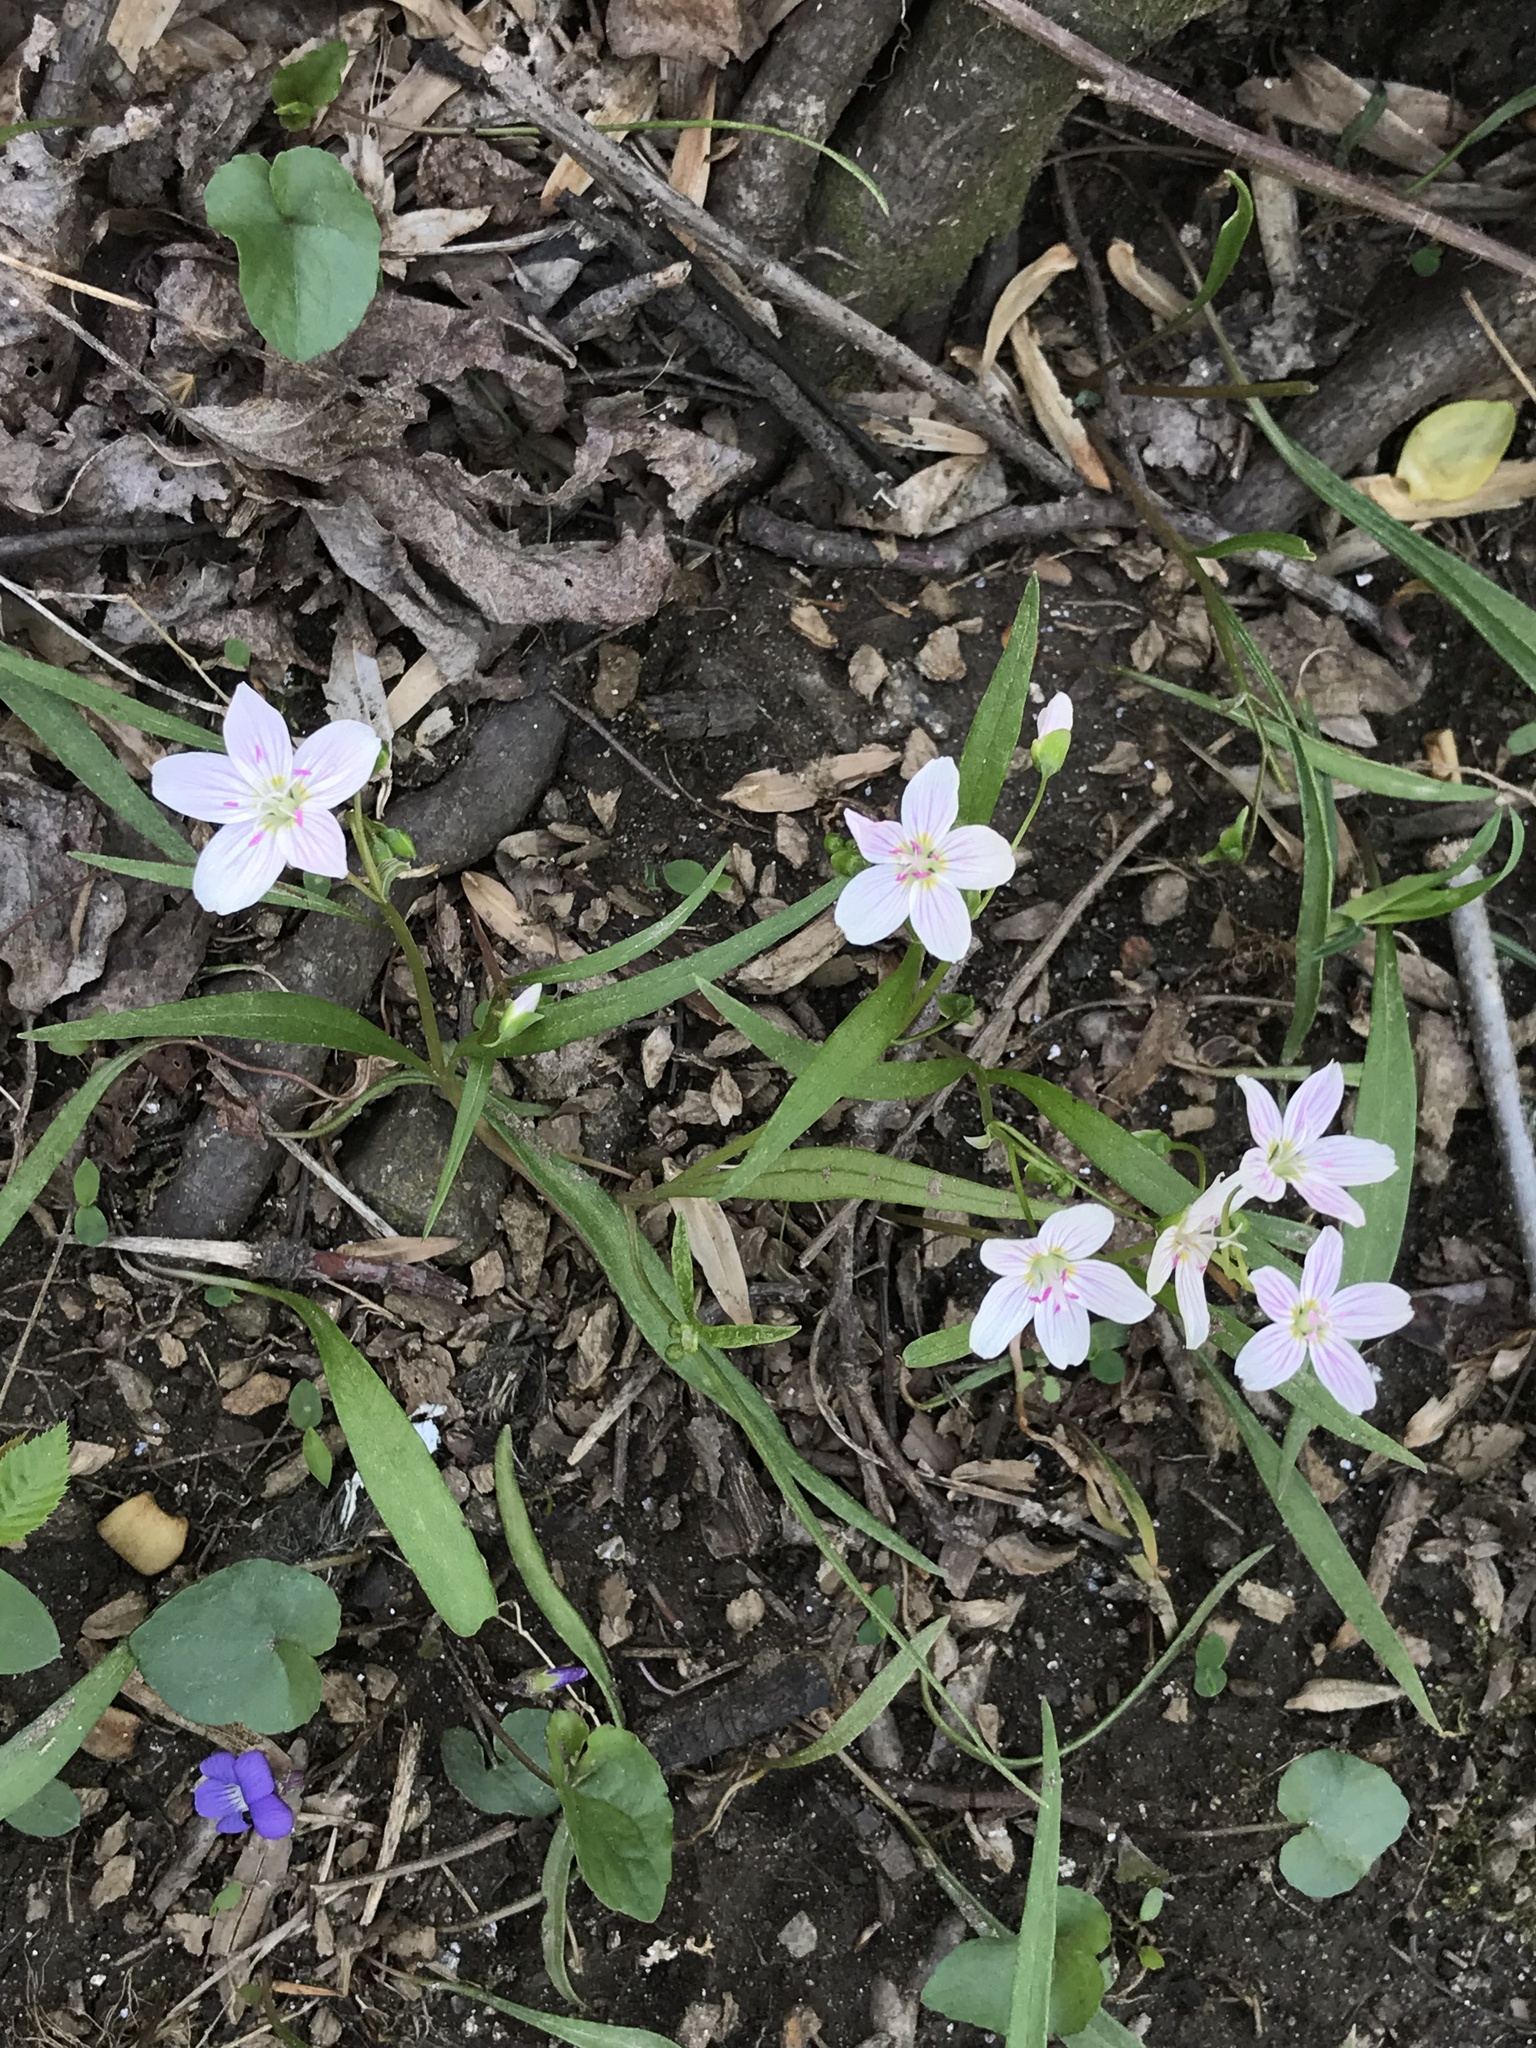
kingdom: Plantae
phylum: Tracheophyta
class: Magnoliopsida
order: Caryophyllales
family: Montiaceae
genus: Claytonia
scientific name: Claytonia virginica
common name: Virginia springbeauty
